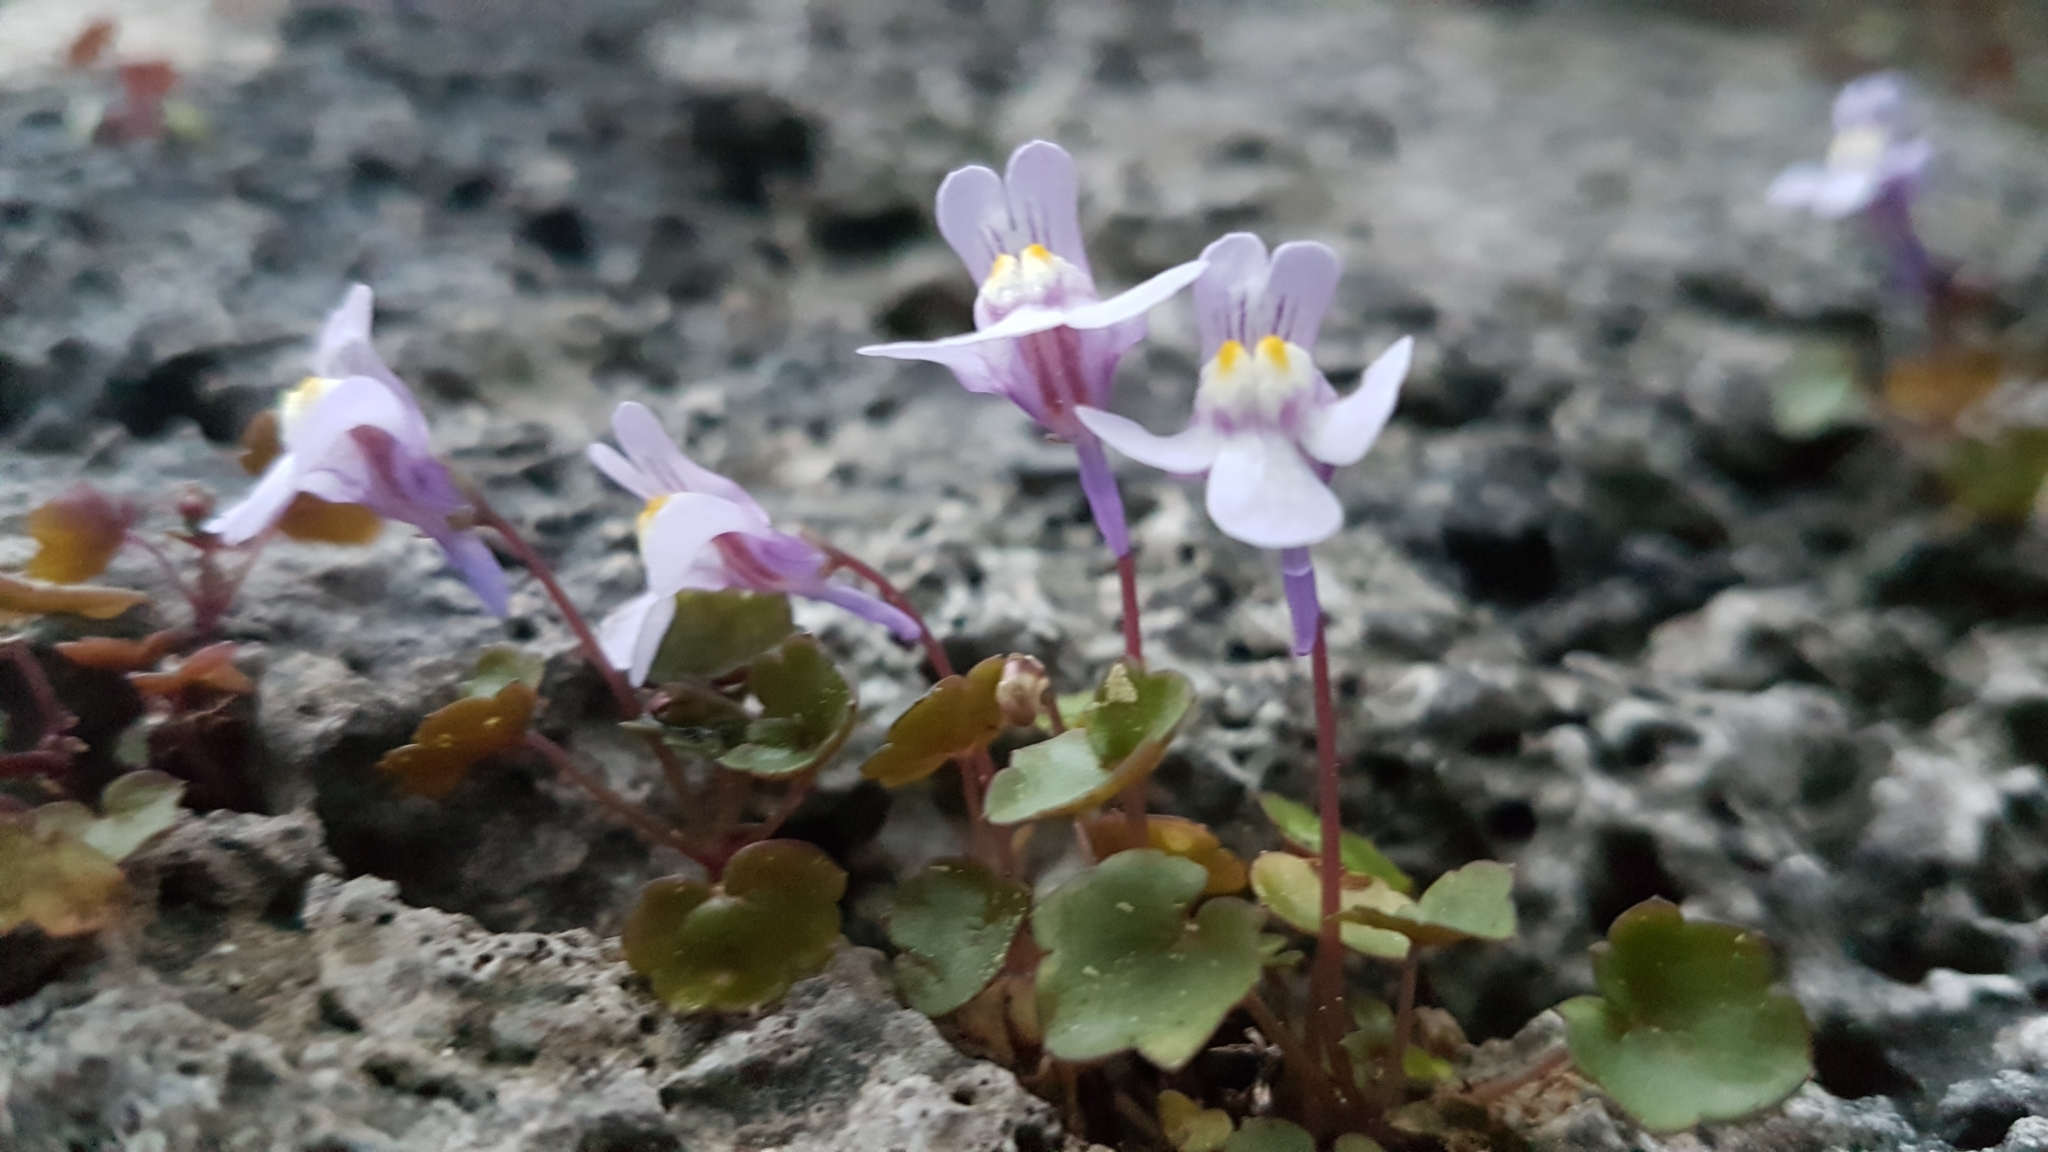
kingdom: Plantae
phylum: Tracheophyta
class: Magnoliopsida
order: Lamiales
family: Plantaginaceae
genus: Cymbalaria
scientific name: Cymbalaria muralis
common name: Ivy-leaved toadflax
